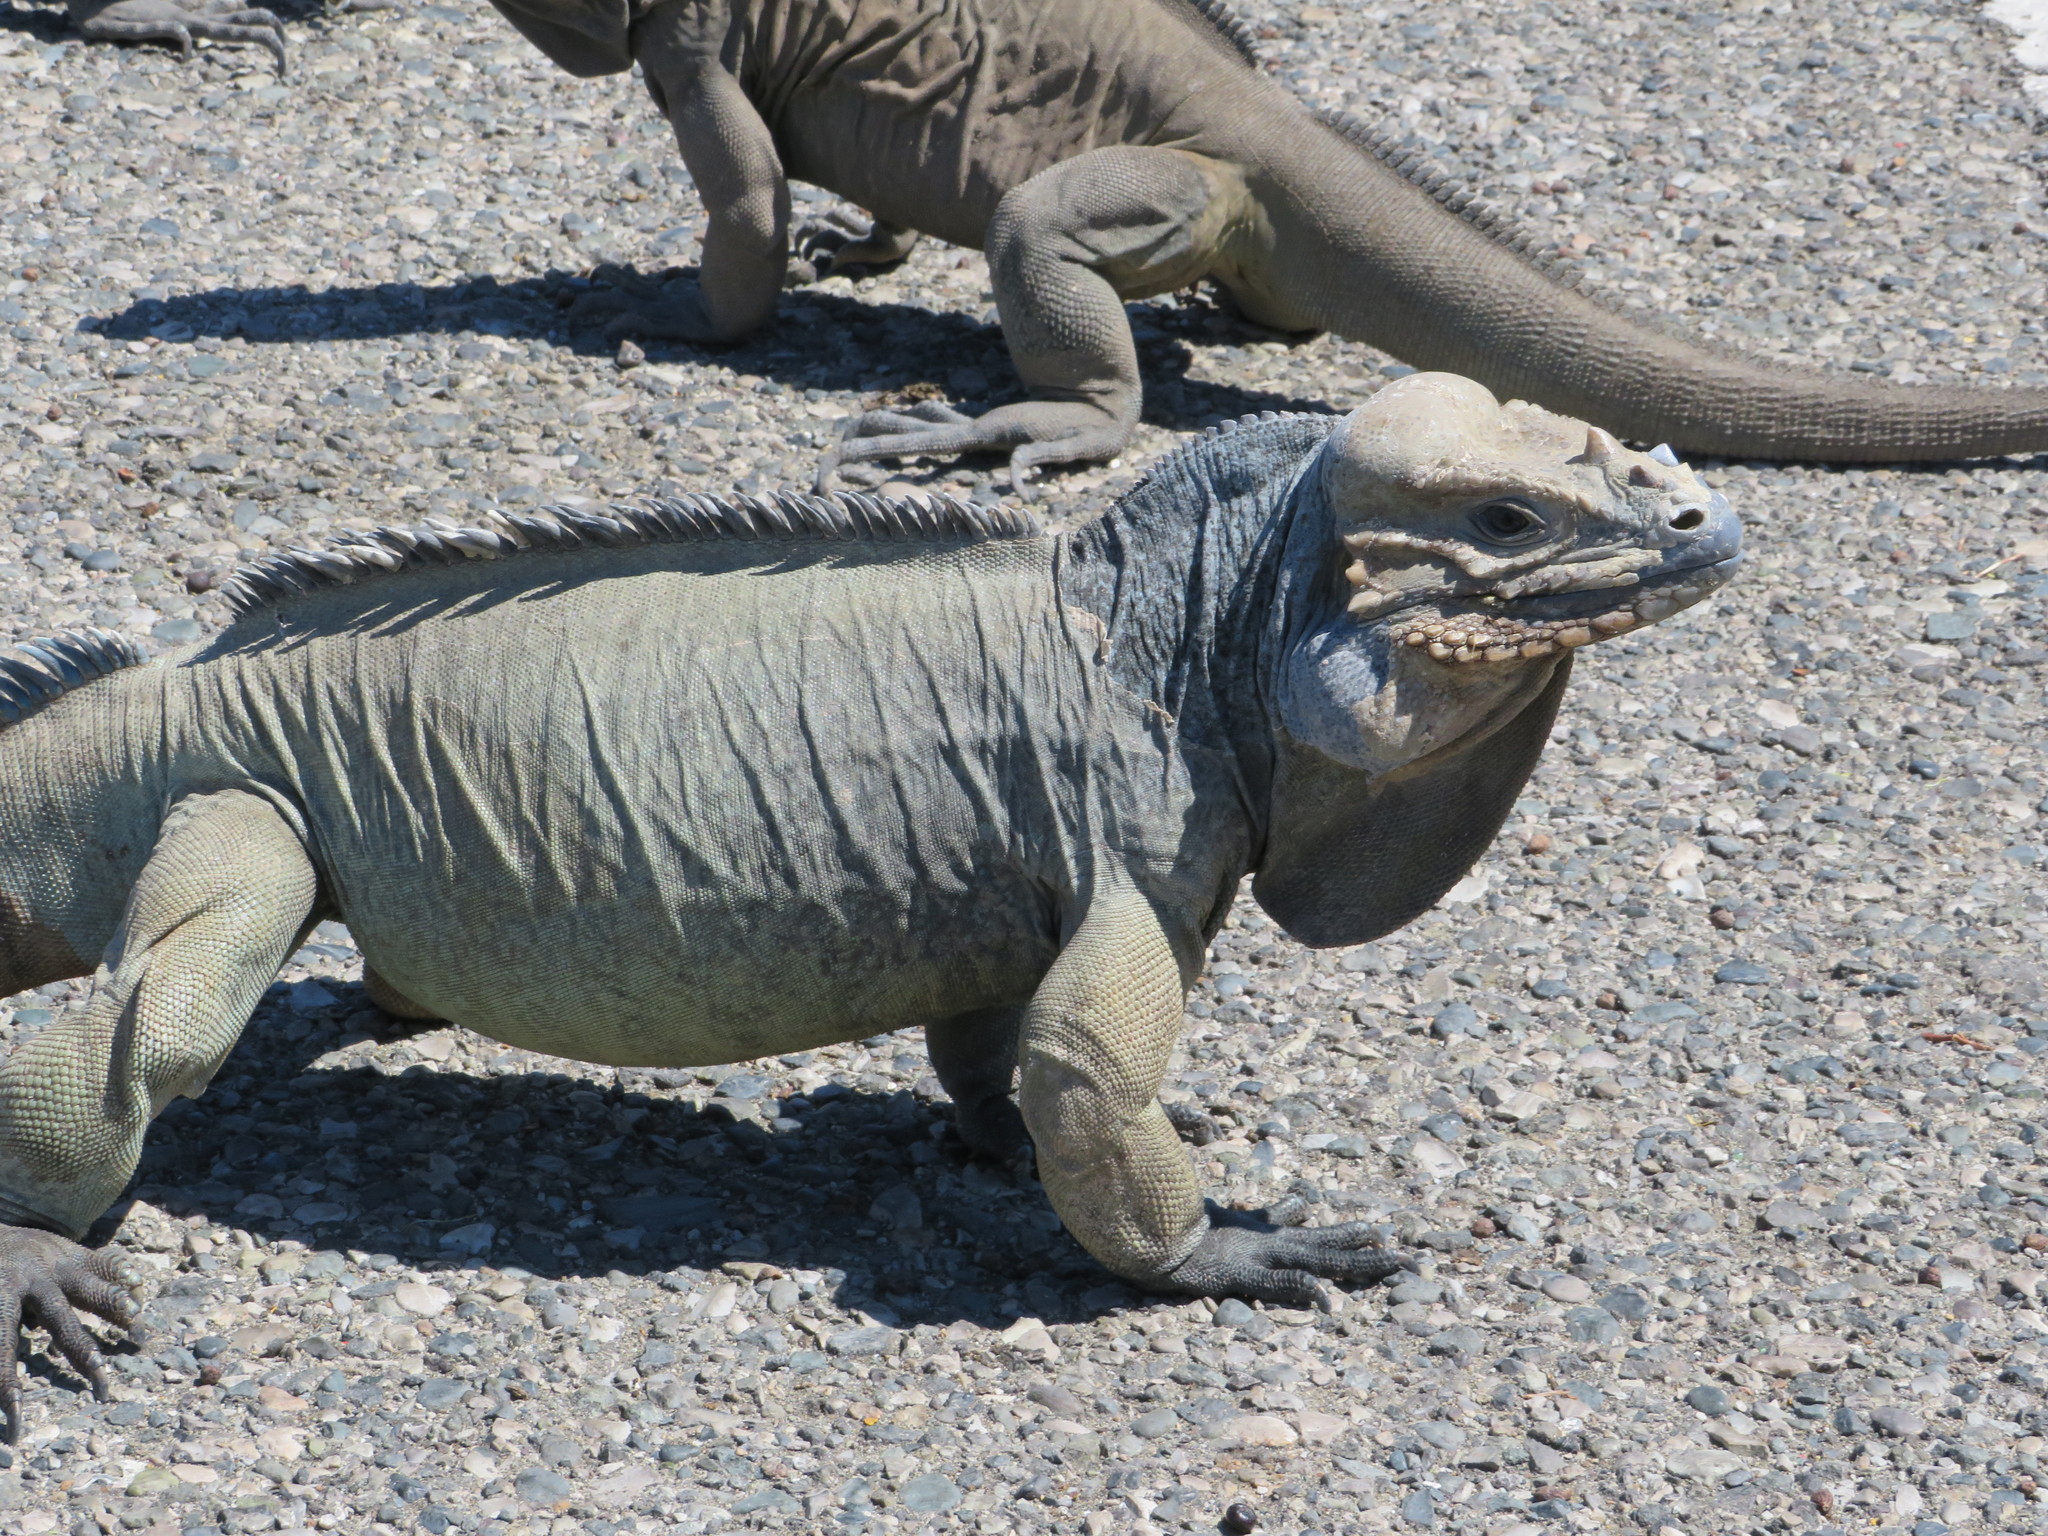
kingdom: Animalia
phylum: Chordata
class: Squamata
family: Iguanidae
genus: Cyclura
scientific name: Cyclura cornuta
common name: Hispaniolan rhinoceros iguana
